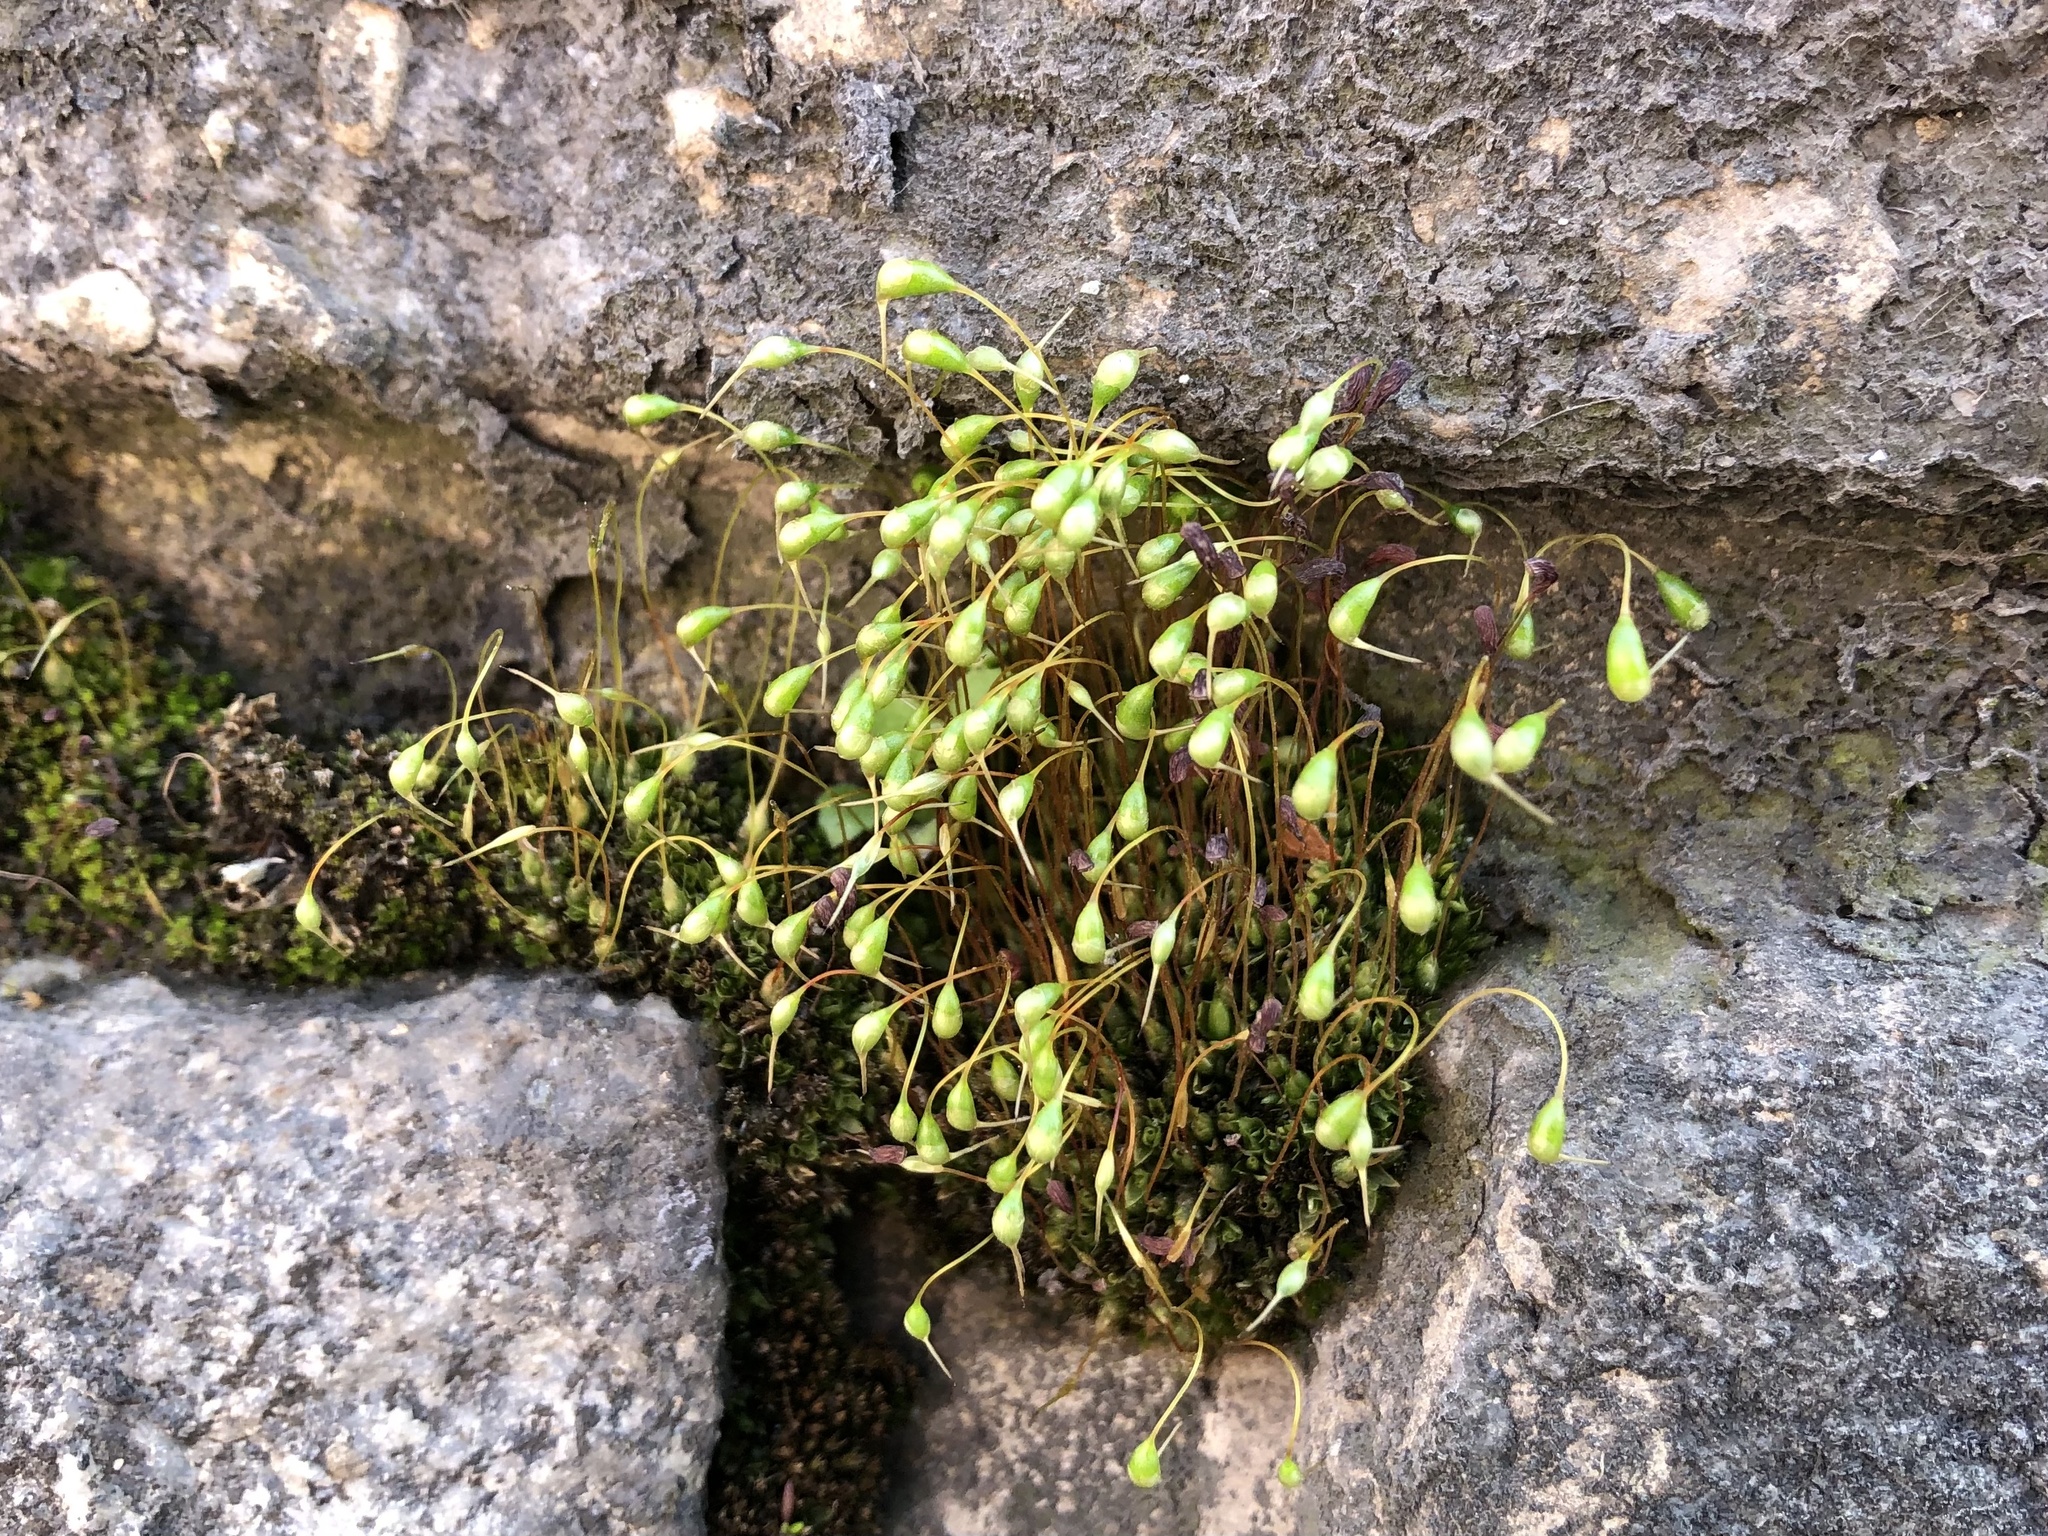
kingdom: Plantae
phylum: Bryophyta
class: Bryopsida
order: Funariales
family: Funariaceae
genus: Funaria
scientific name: Funaria hygrometrica
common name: Common cord moss
